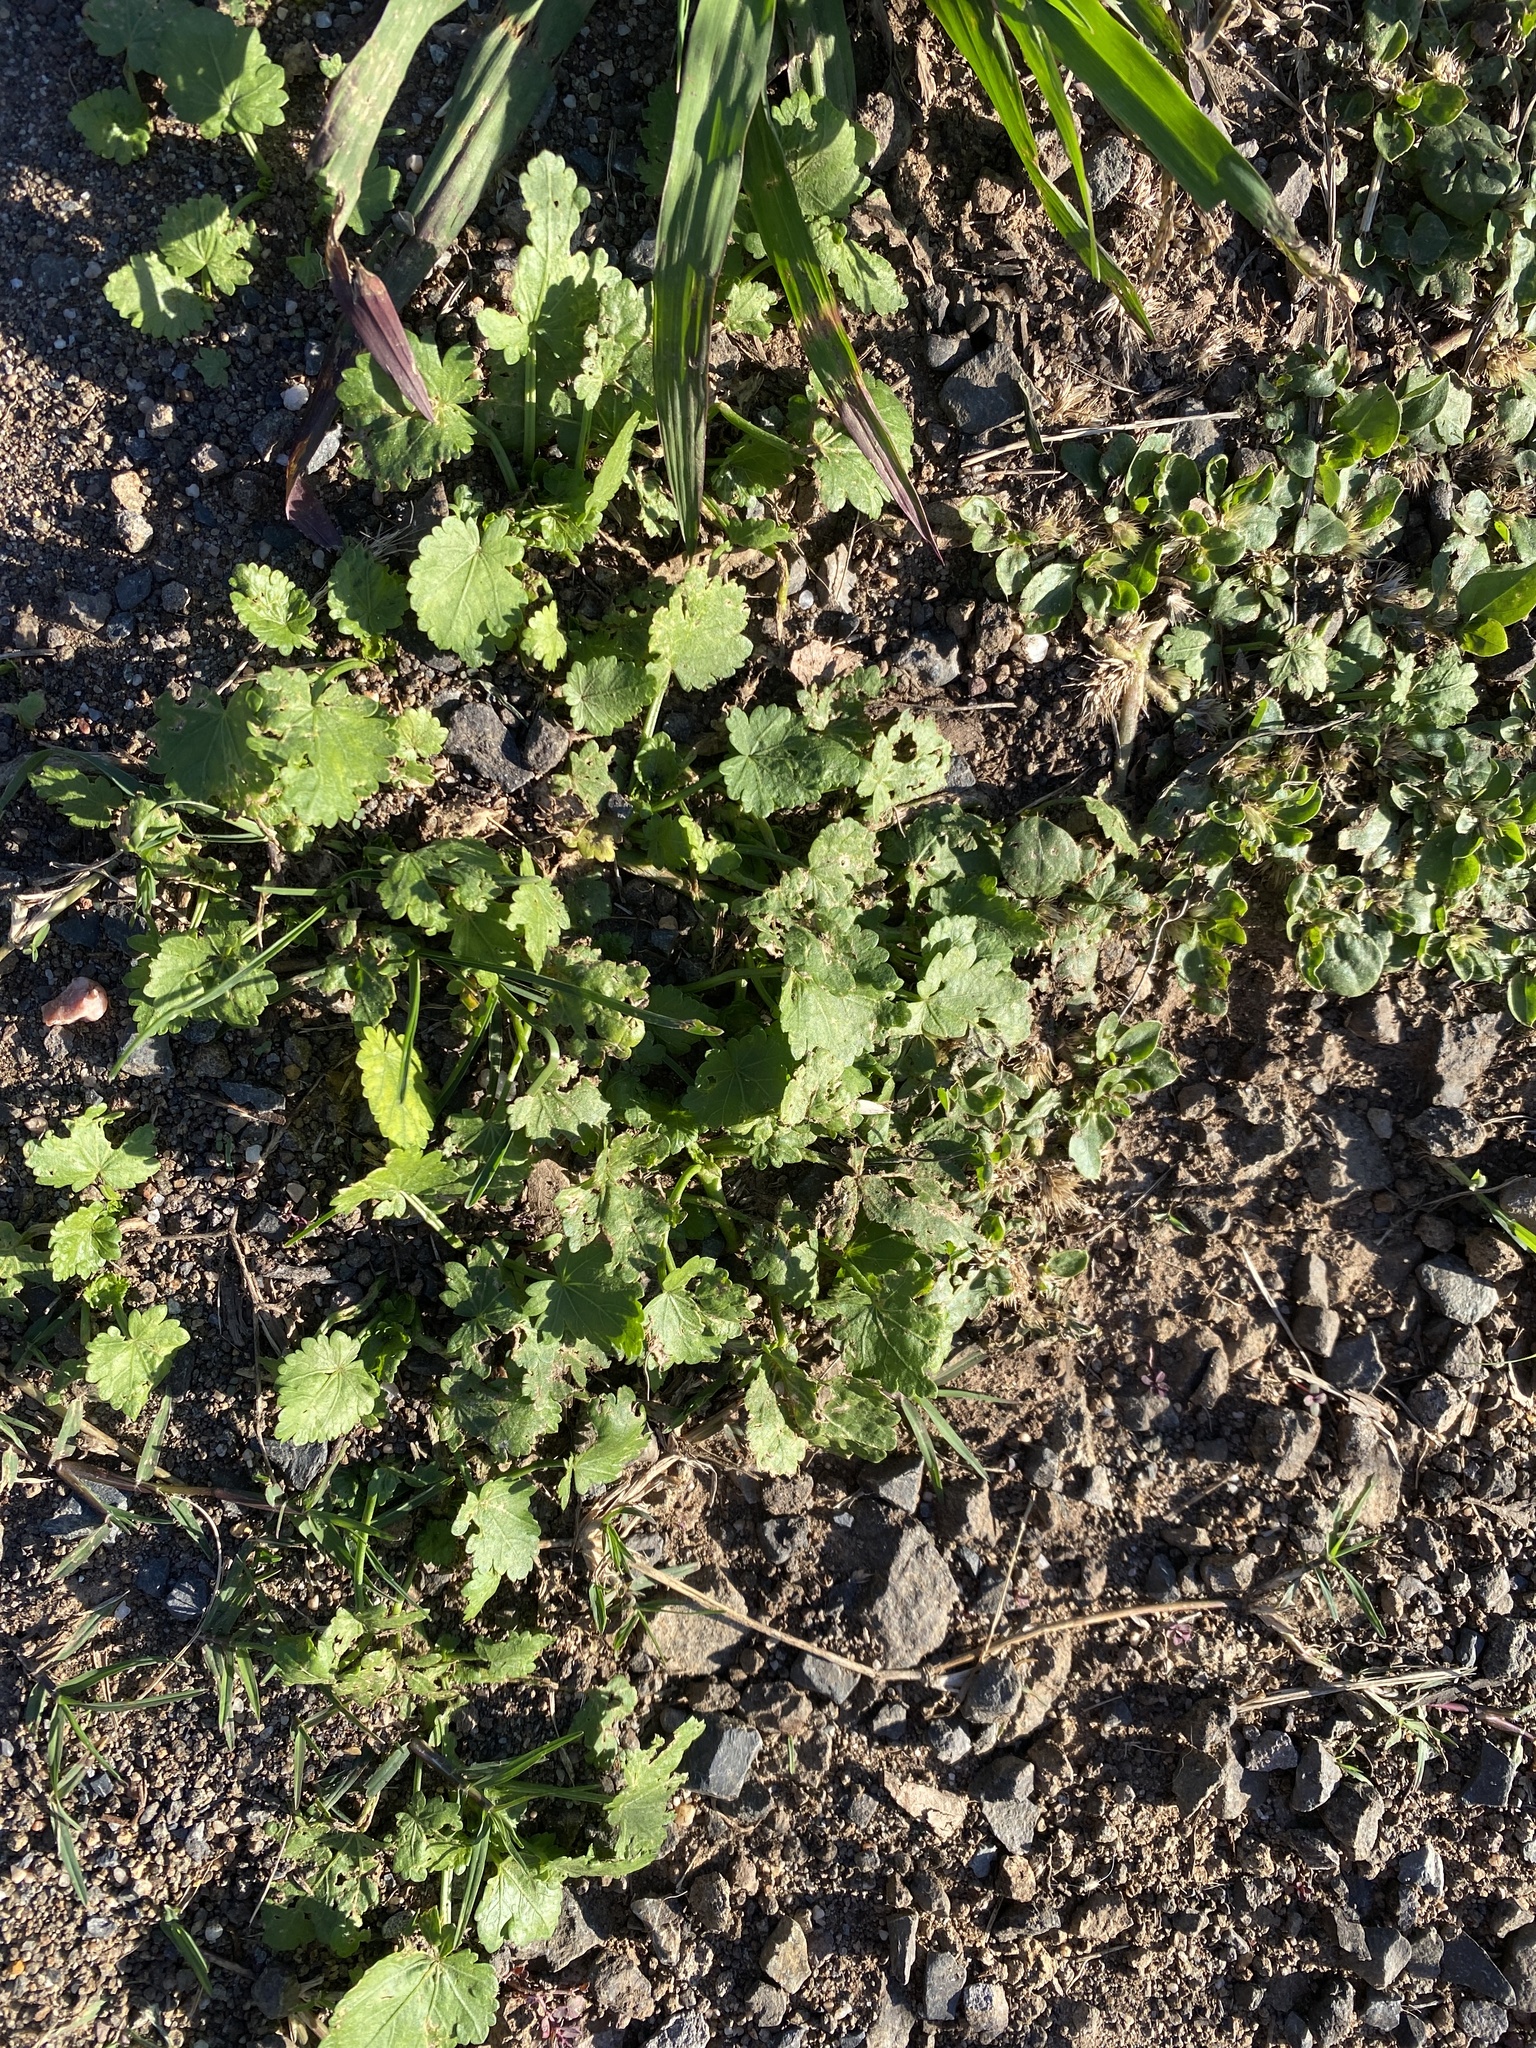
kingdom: Plantae
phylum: Tracheophyta
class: Magnoliopsida
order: Malvales
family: Malvaceae
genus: Modiola
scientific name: Modiola caroliniana
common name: Carolina bristlemallow
